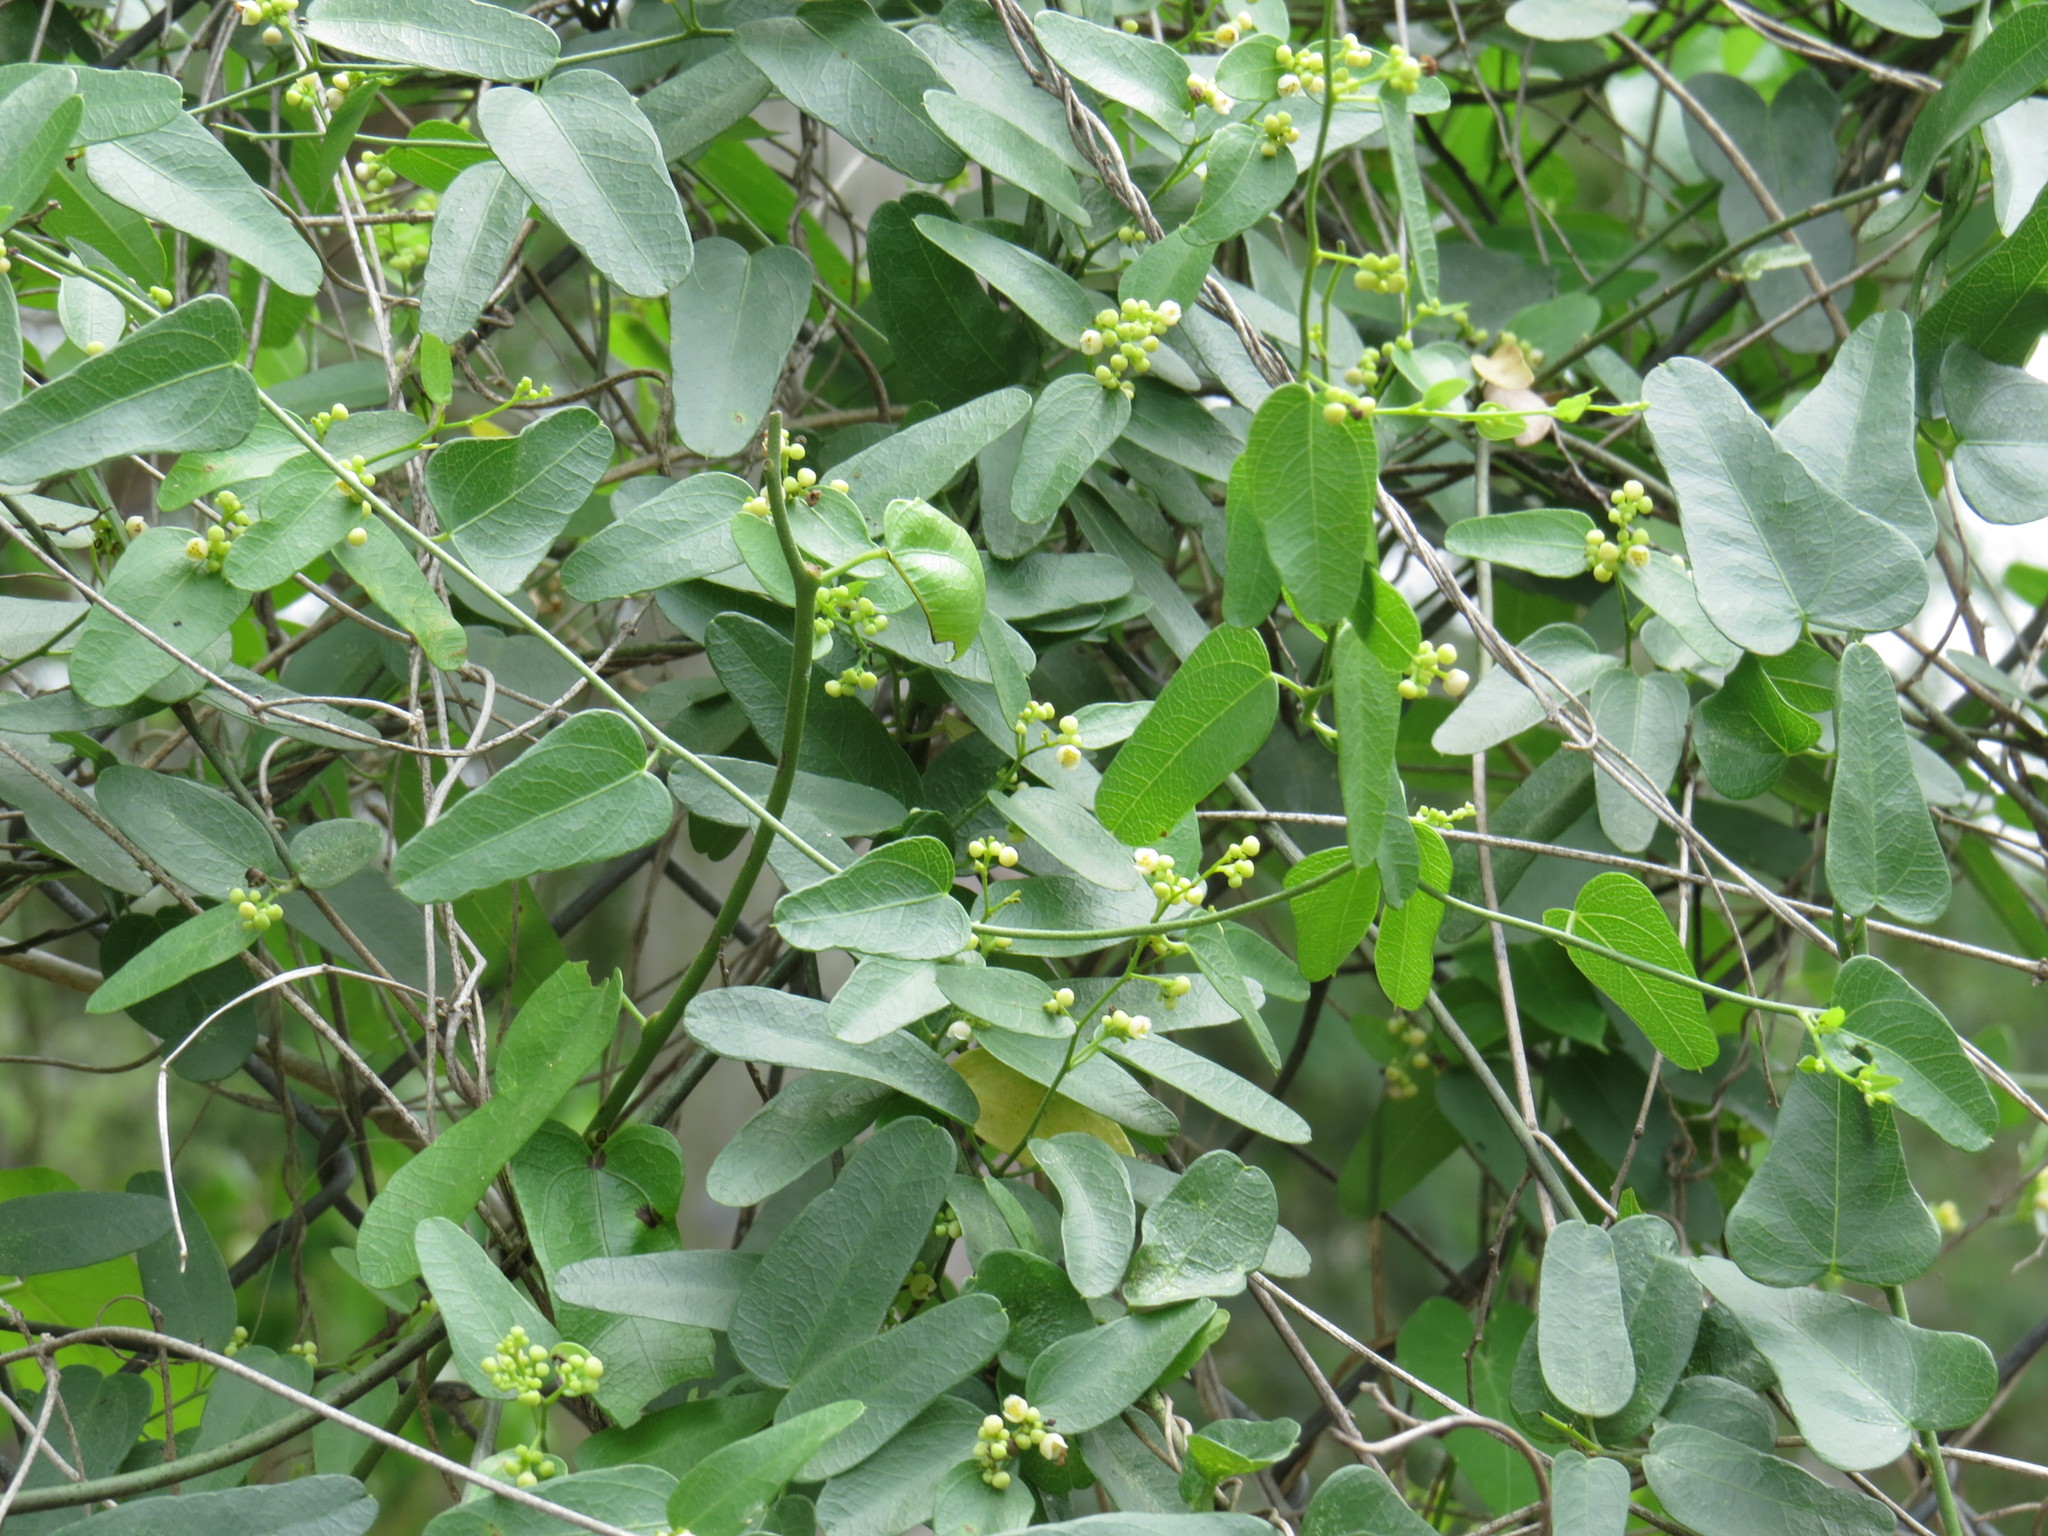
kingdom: Plantae
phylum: Tracheophyta
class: Magnoliopsida
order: Ranunculales
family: Menispermaceae
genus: Cocculus
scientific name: Cocculus diversifolius
